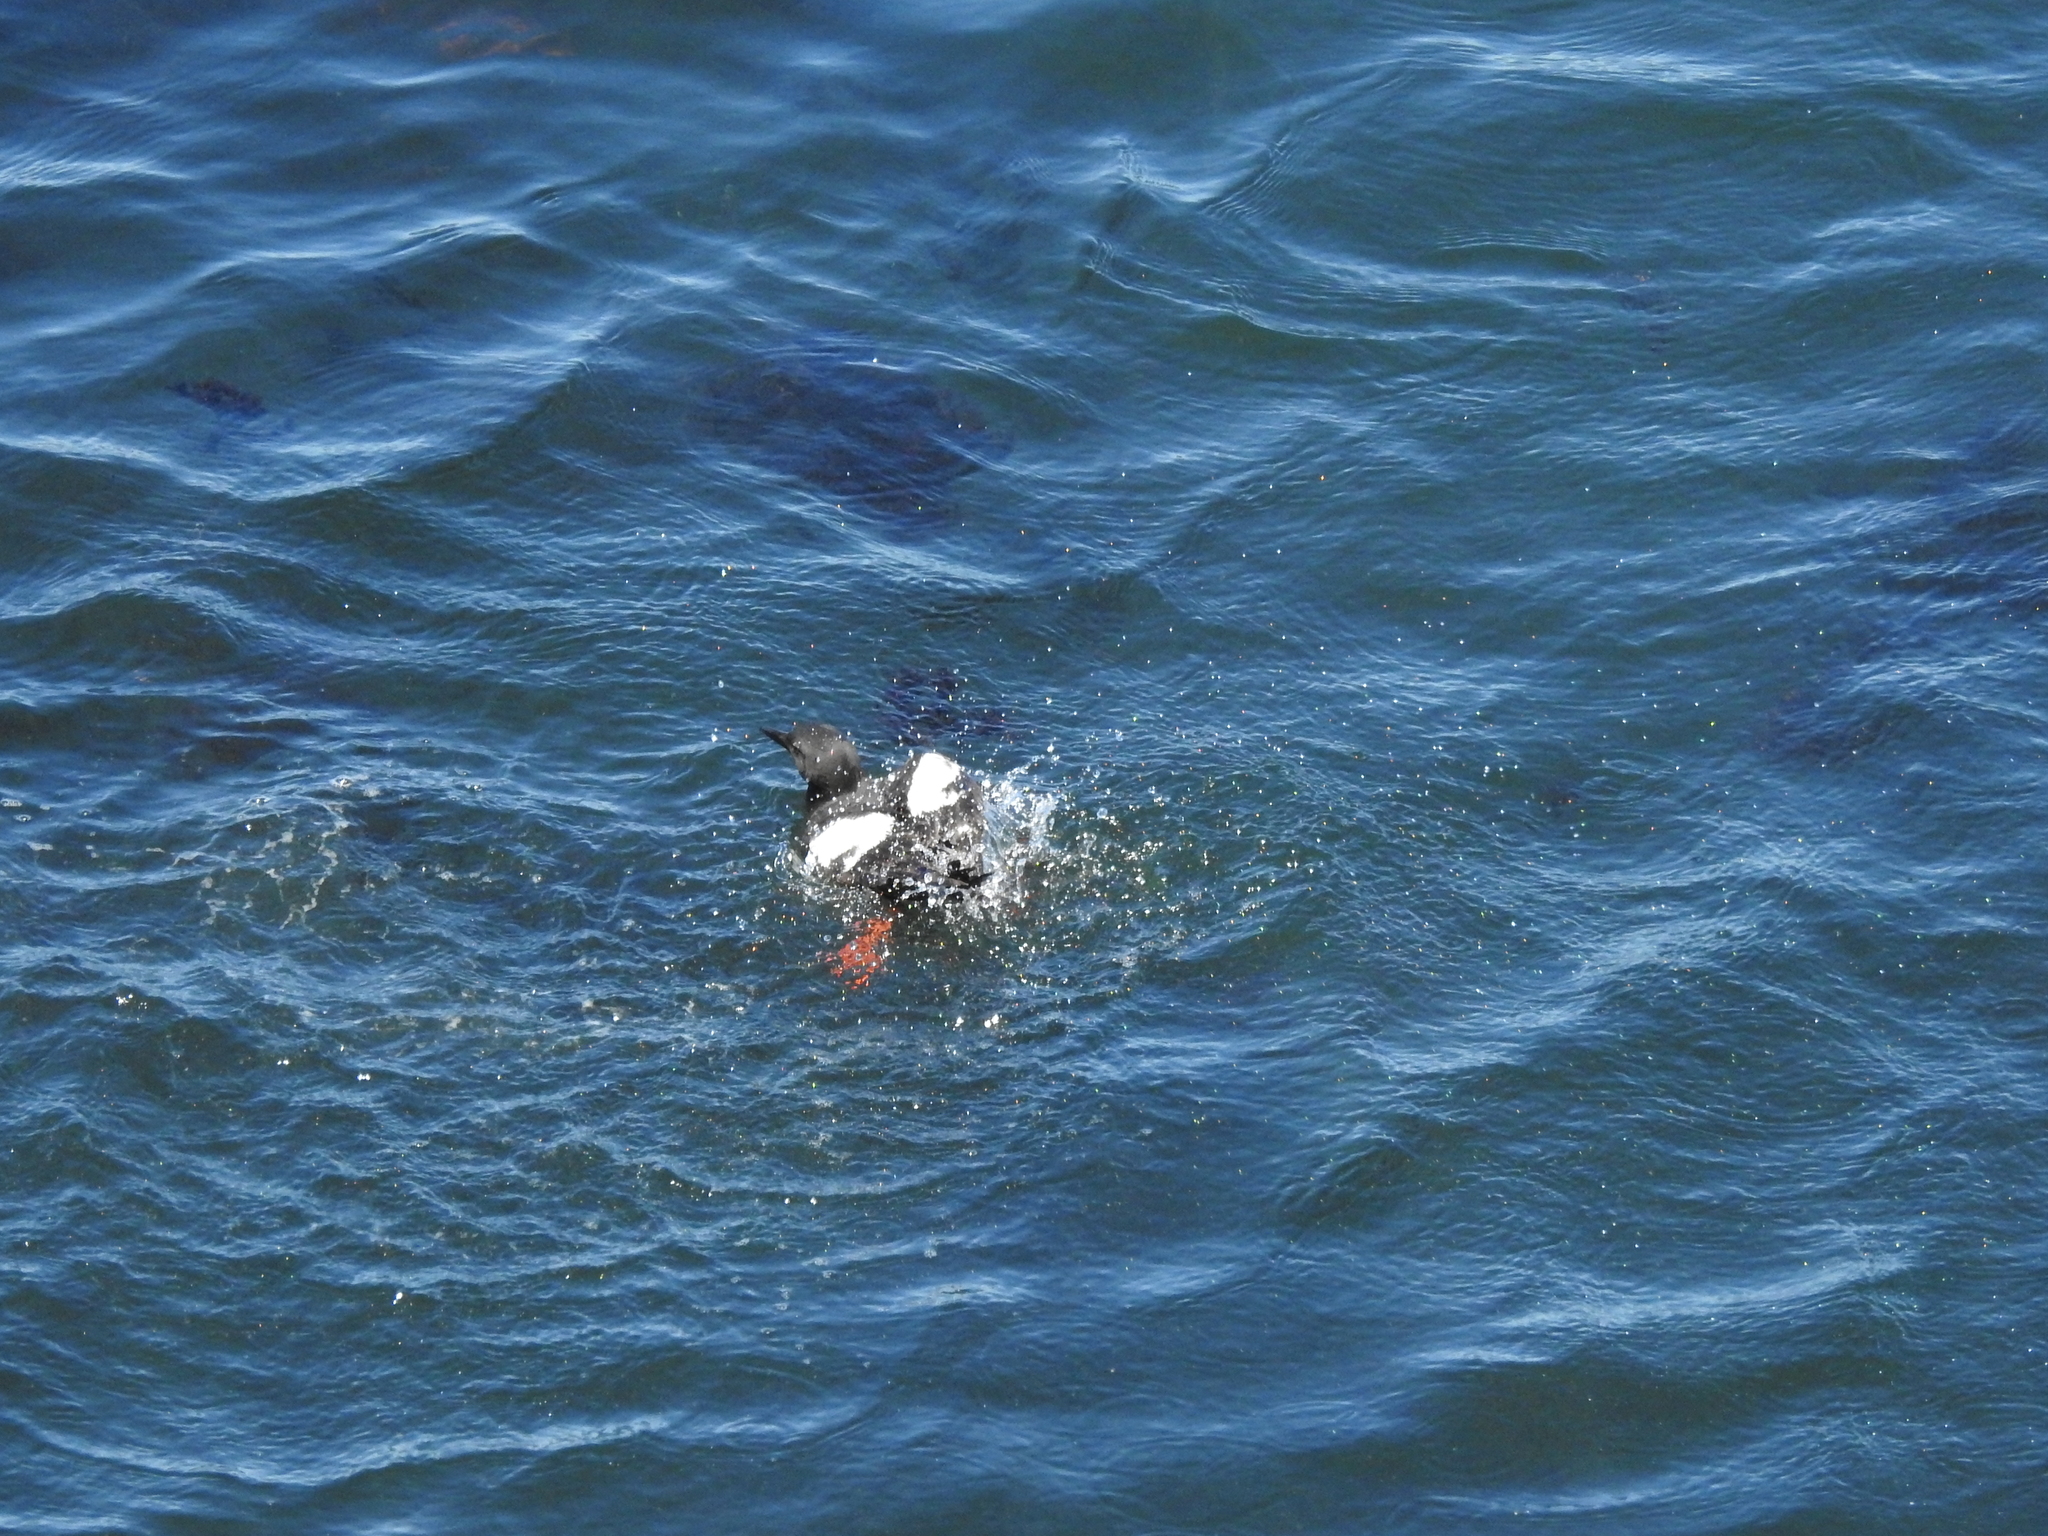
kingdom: Animalia
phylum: Chordata
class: Aves
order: Charadriiformes
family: Alcidae
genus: Cepphus
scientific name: Cepphus columba
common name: Pigeon guillemot
